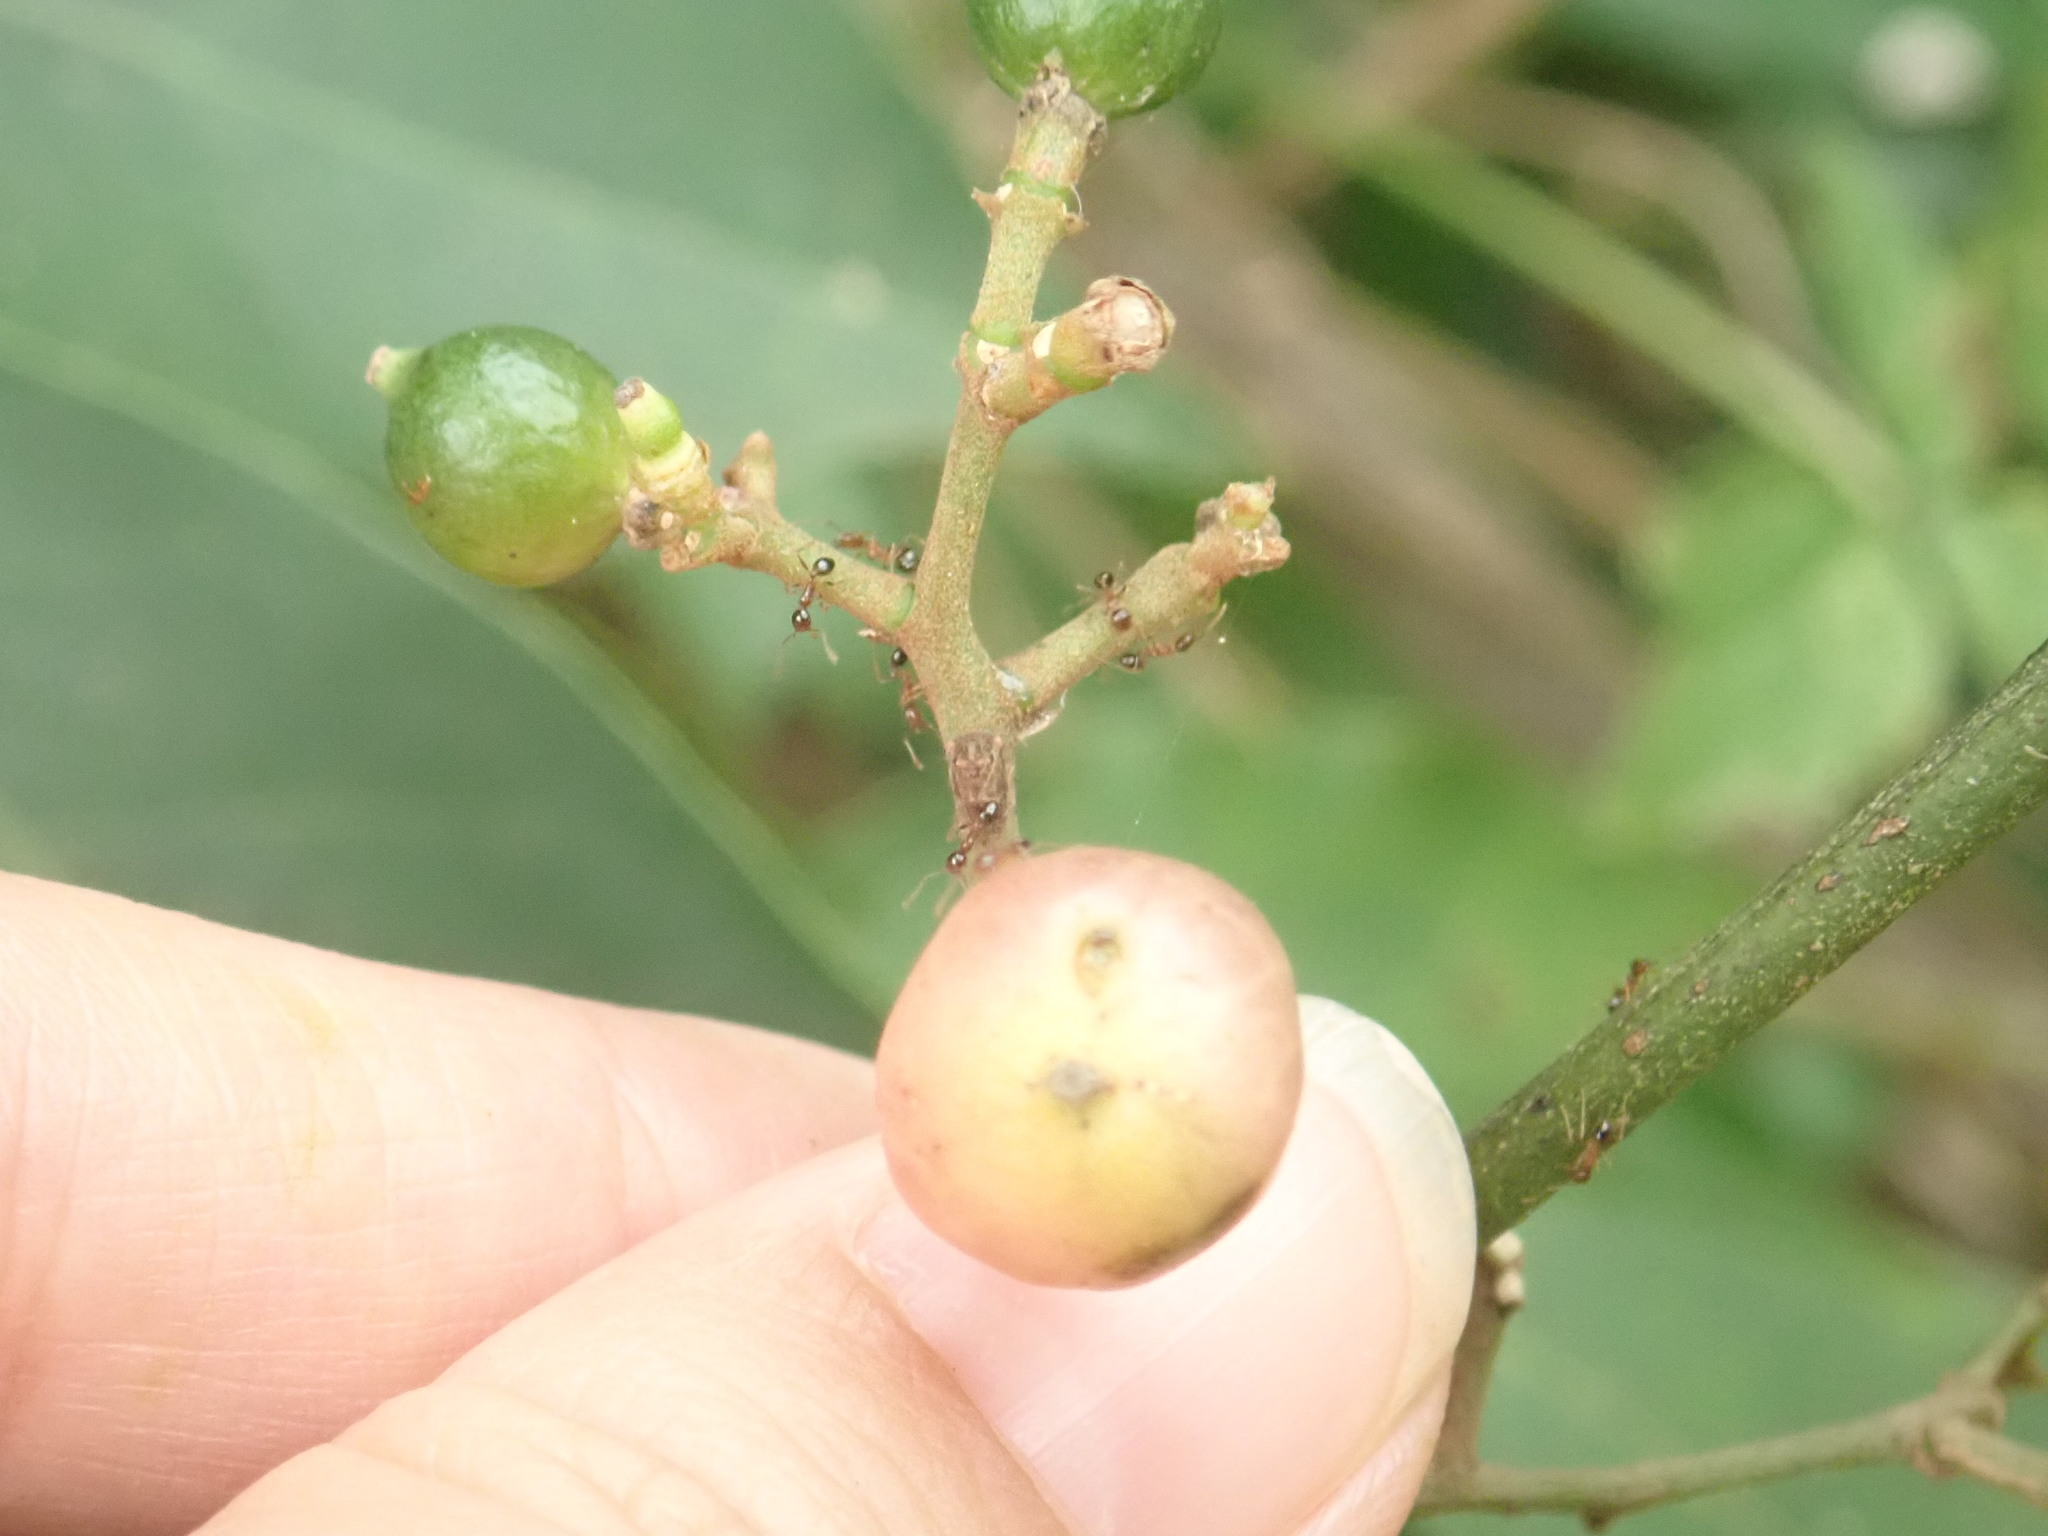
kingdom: Plantae
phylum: Tracheophyta
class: Magnoliopsida
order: Sapindales
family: Rutaceae
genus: Glycosmis
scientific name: Glycosmis parviflora
